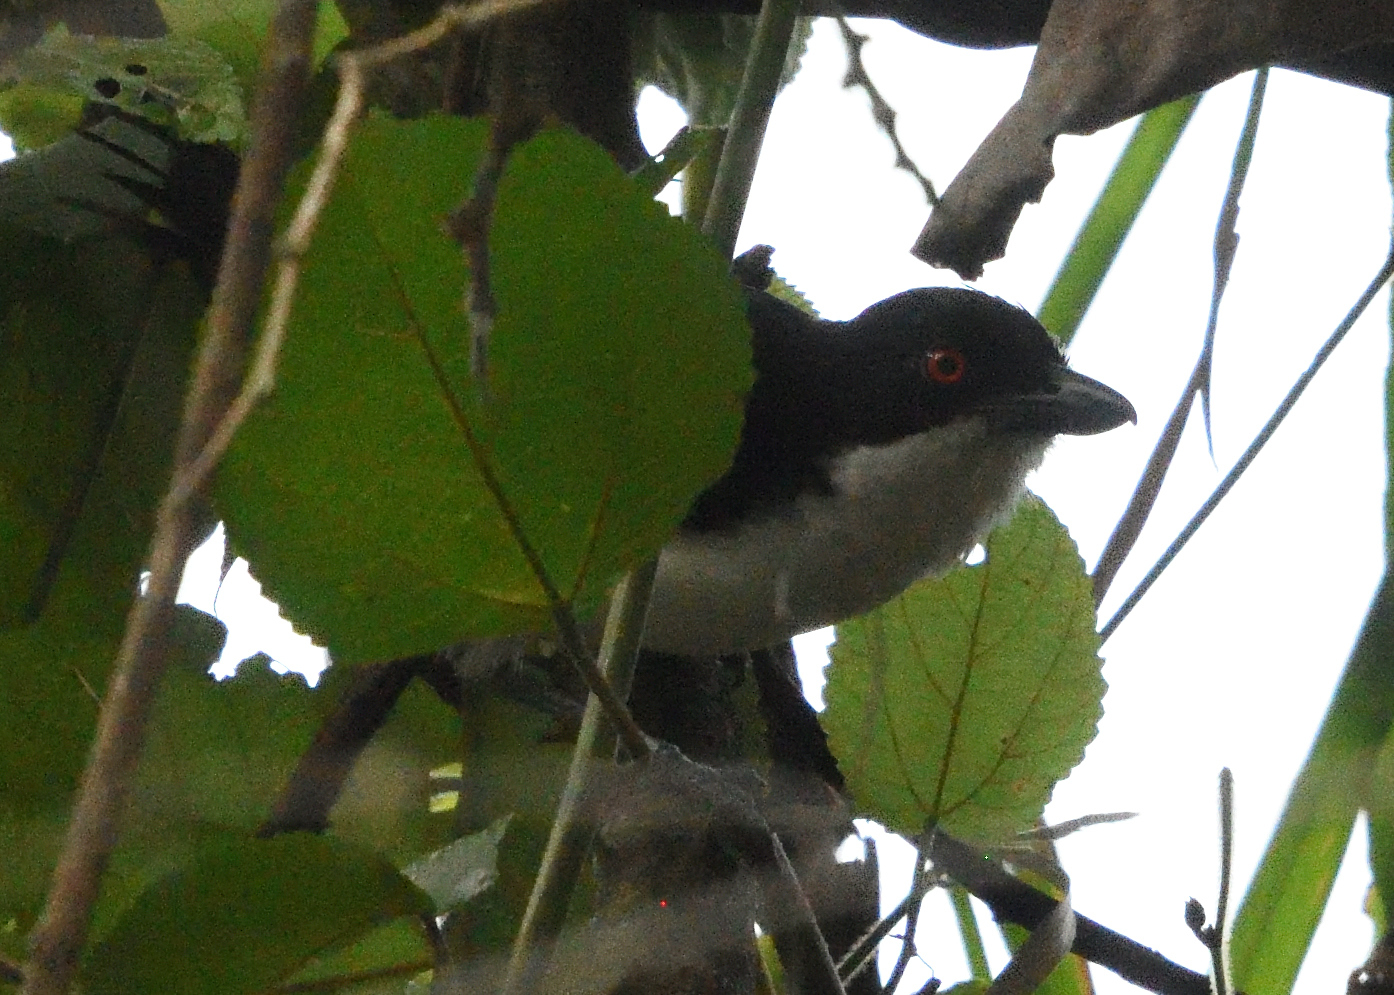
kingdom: Animalia
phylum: Chordata
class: Aves
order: Passeriformes
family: Thamnophilidae
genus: Taraba
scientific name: Taraba major
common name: Great antshrike
